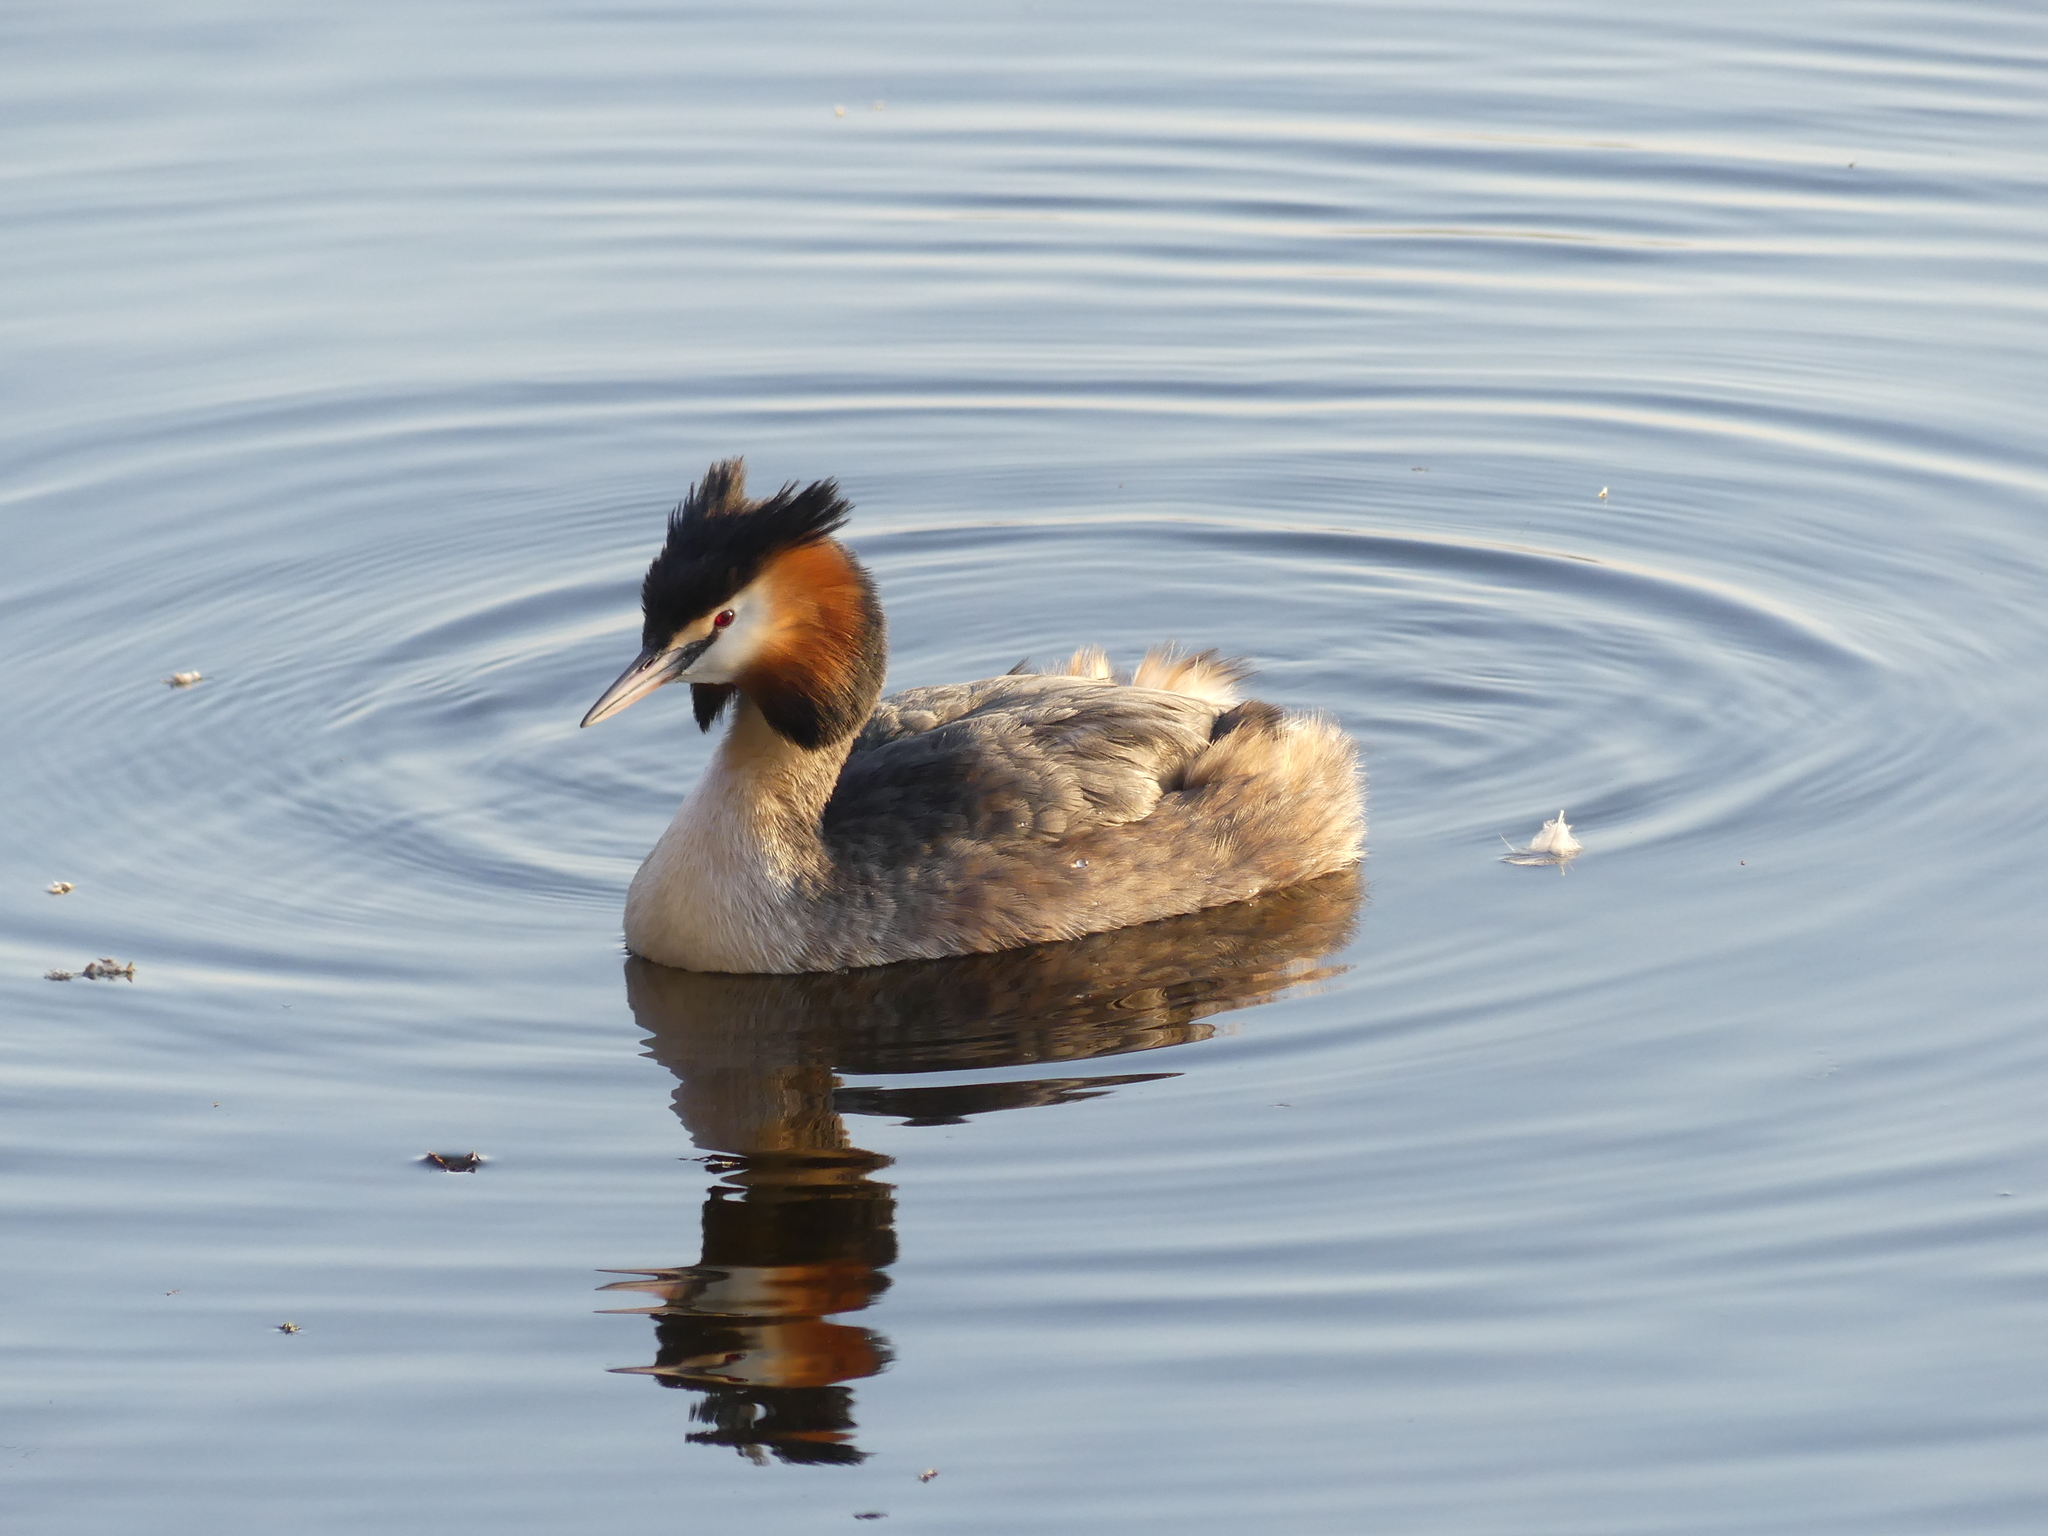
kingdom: Animalia
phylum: Chordata
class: Aves
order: Podicipediformes
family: Podicipedidae
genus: Podiceps
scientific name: Podiceps cristatus
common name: Great crested grebe
